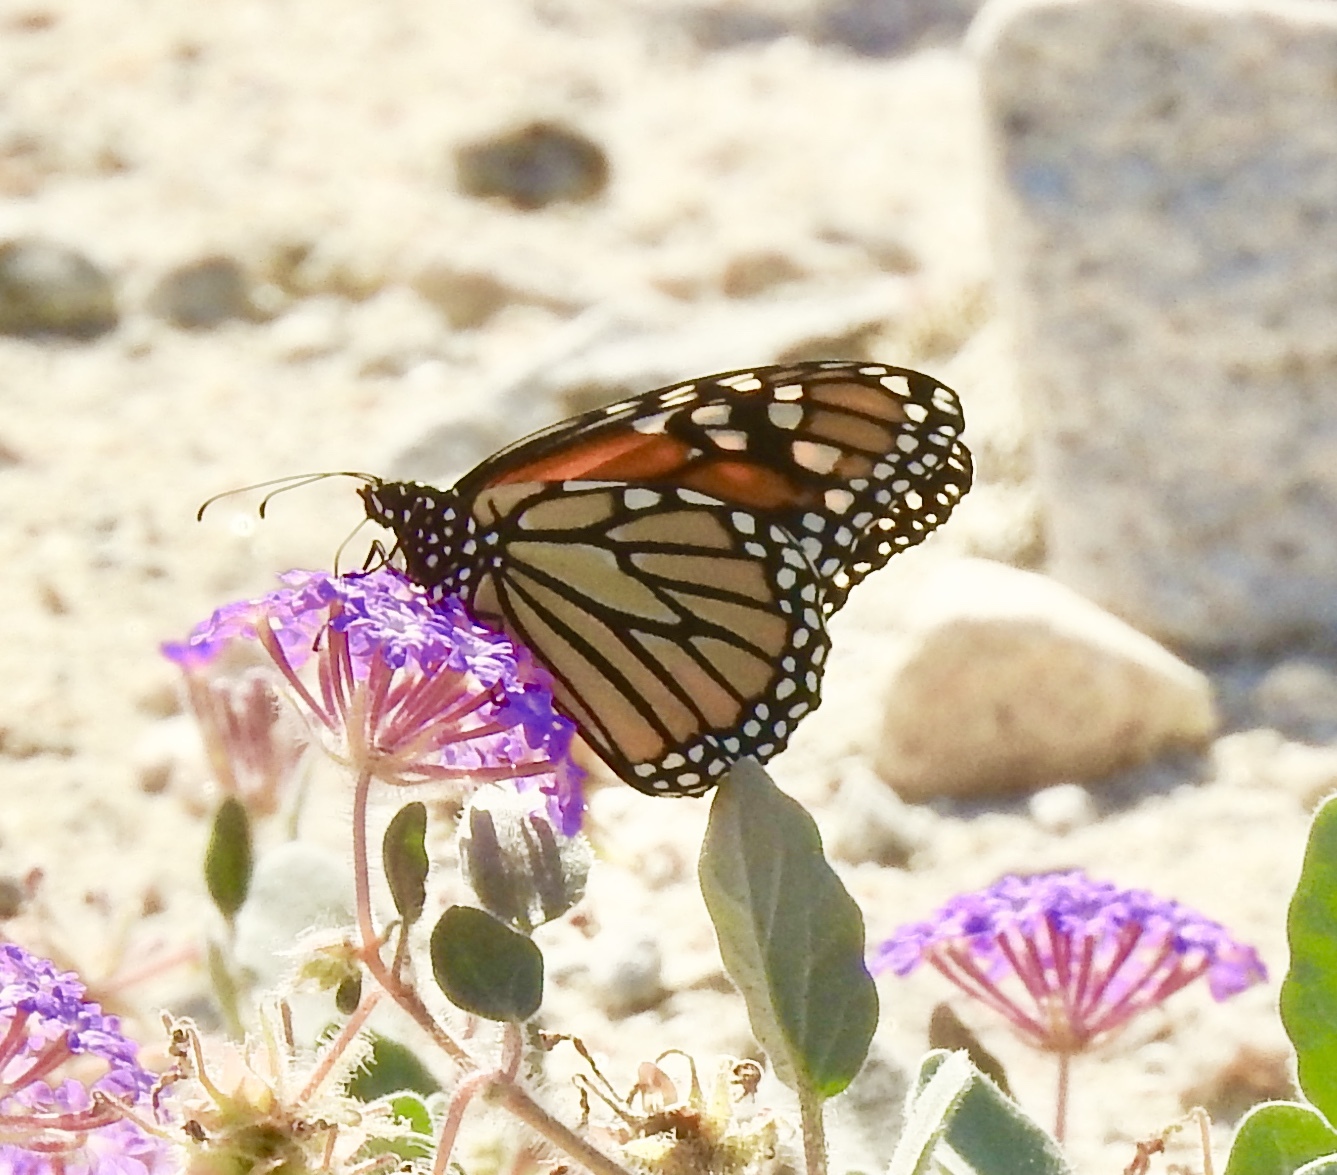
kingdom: Animalia
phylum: Arthropoda
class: Insecta
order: Lepidoptera
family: Nymphalidae
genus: Danaus
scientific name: Danaus plexippus
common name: Monarch
